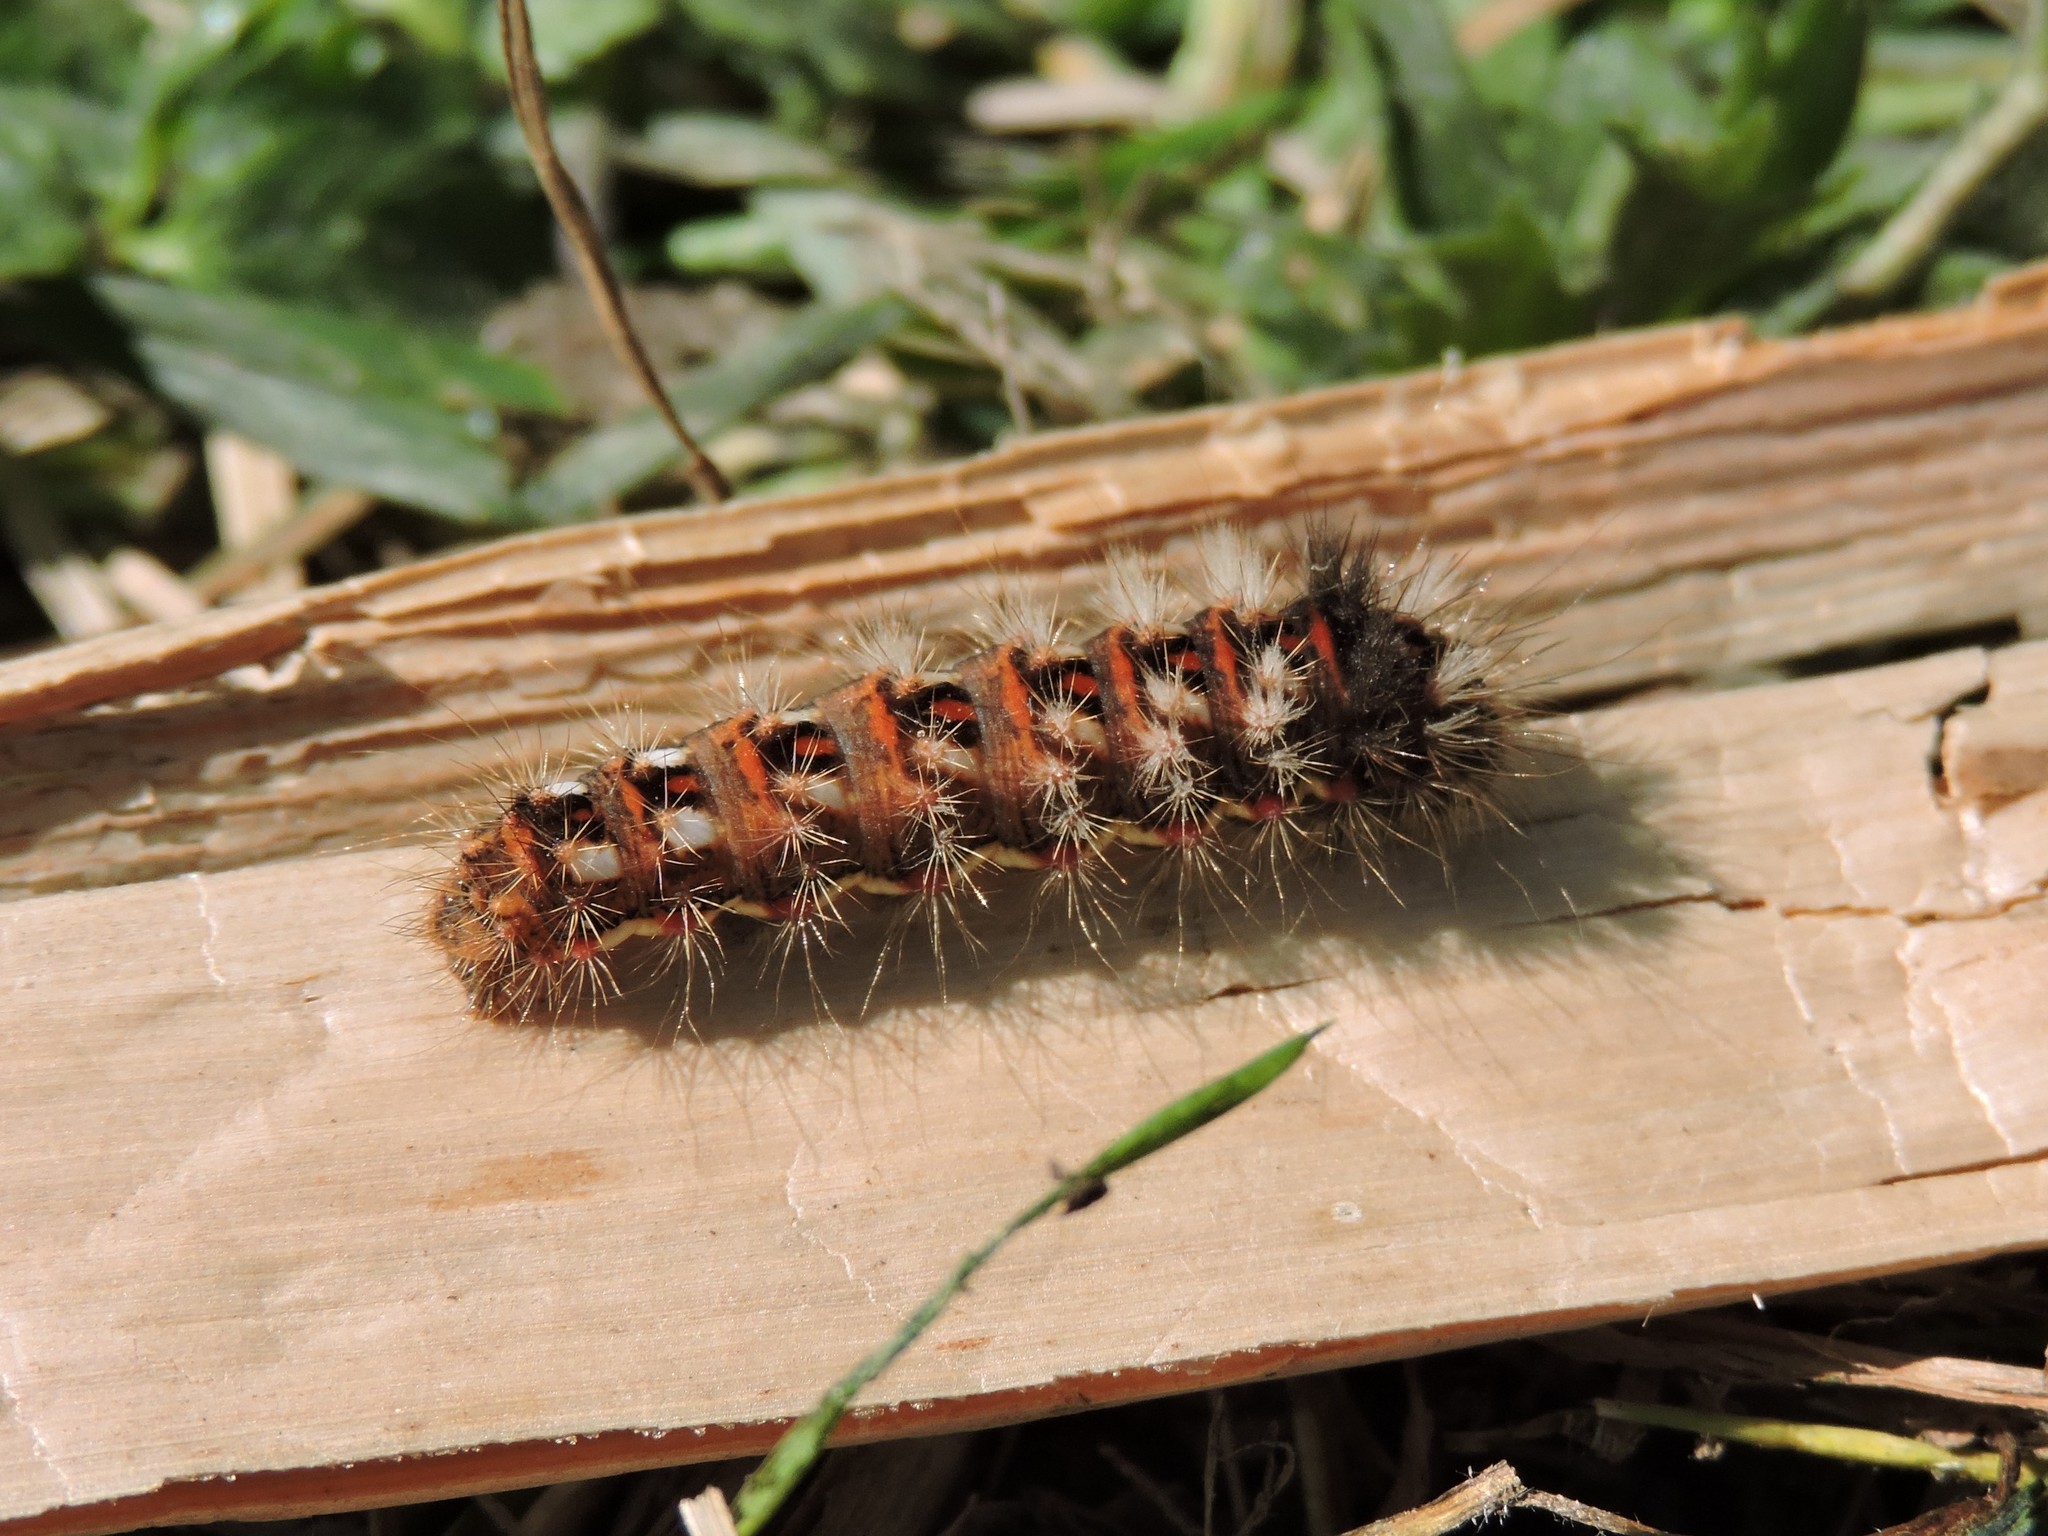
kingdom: Animalia
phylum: Arthropoda
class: Insecta
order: Lepidoptera
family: Noctuidae
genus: Acronicta
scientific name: Acronicta rumicis
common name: Knot grass
